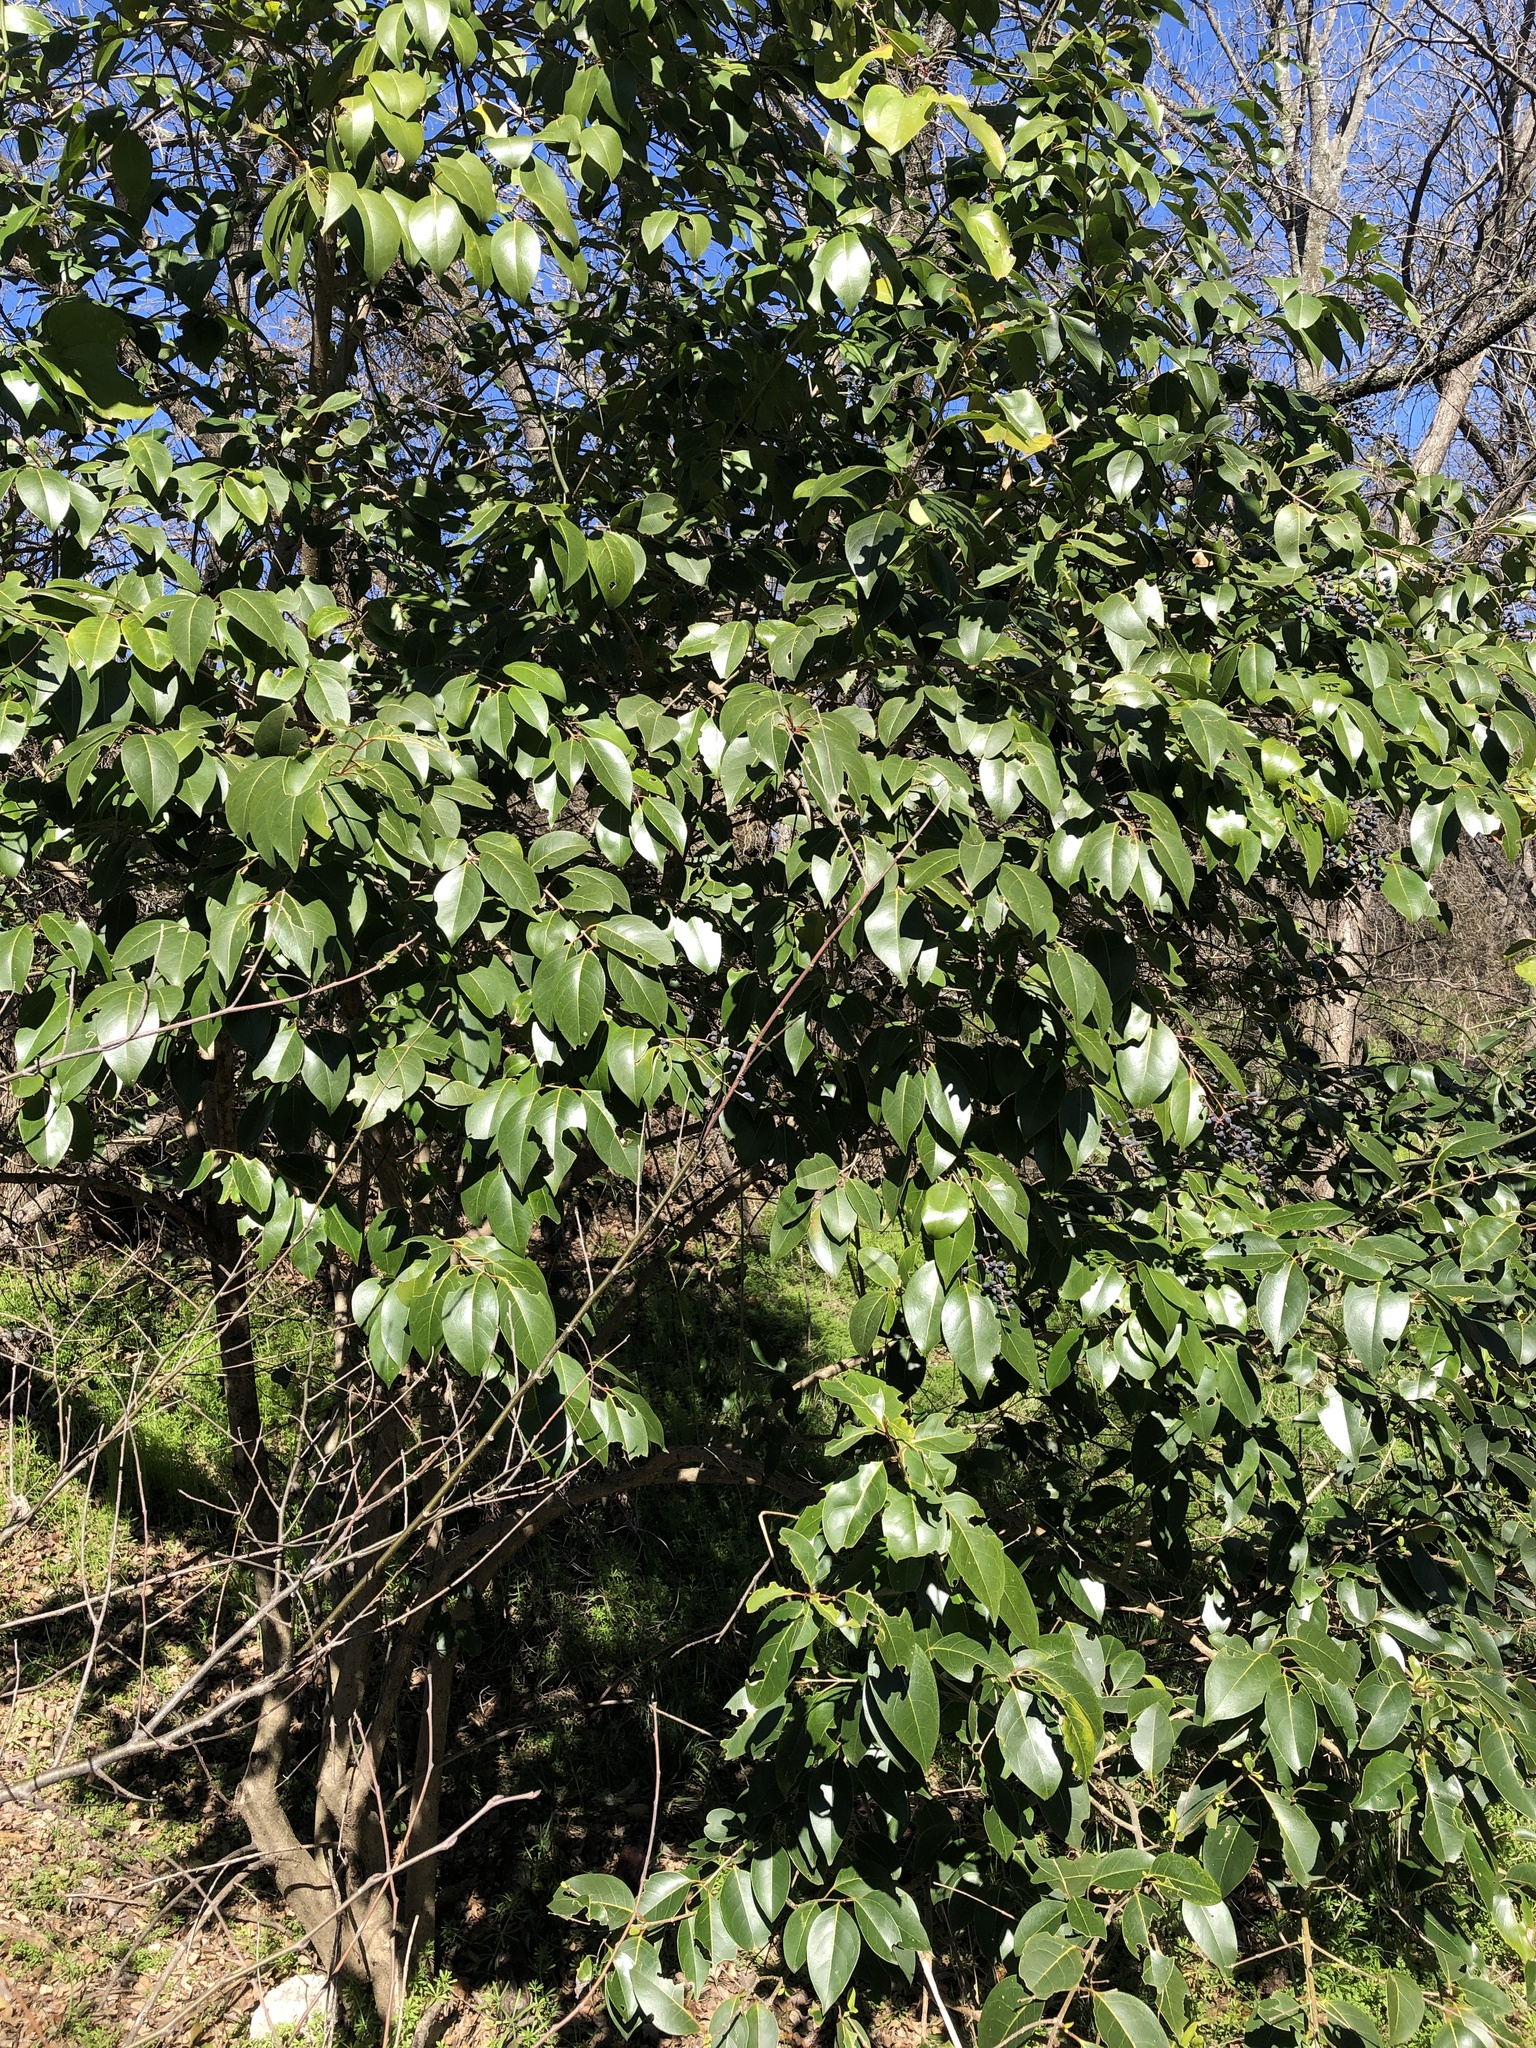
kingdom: Plantae
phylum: Tracheophyta
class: Magnoliopsida
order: Lamiales
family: Oleaceae
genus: Ligustrum
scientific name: Ligustrum lucidum
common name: Glossy privet
